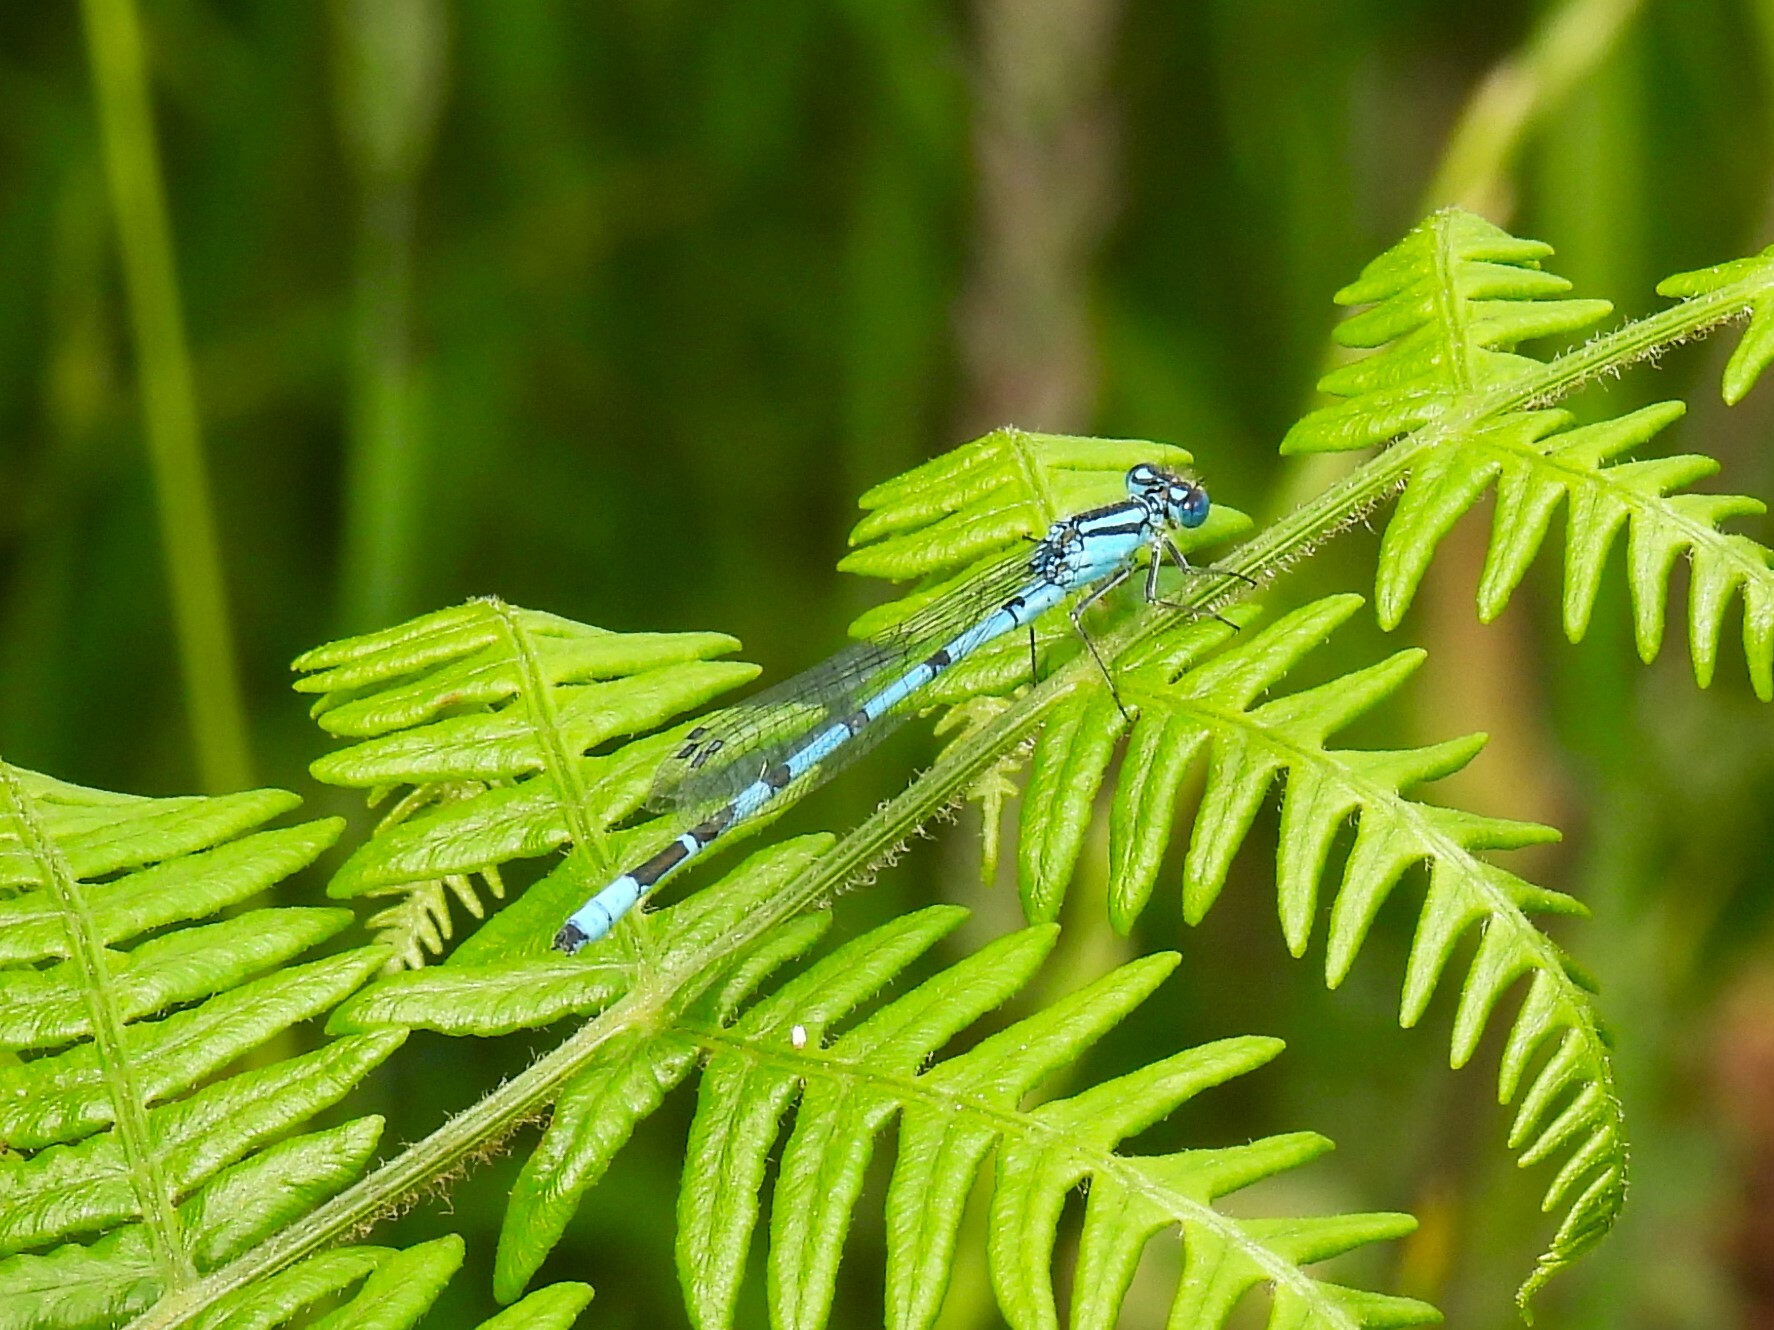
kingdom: Animalia
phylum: Arthropoda
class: Insecta
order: Odonata
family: Coenagrionidae
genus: Enallagma
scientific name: Enallagma cyathigerum
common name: Common blue damselfly
